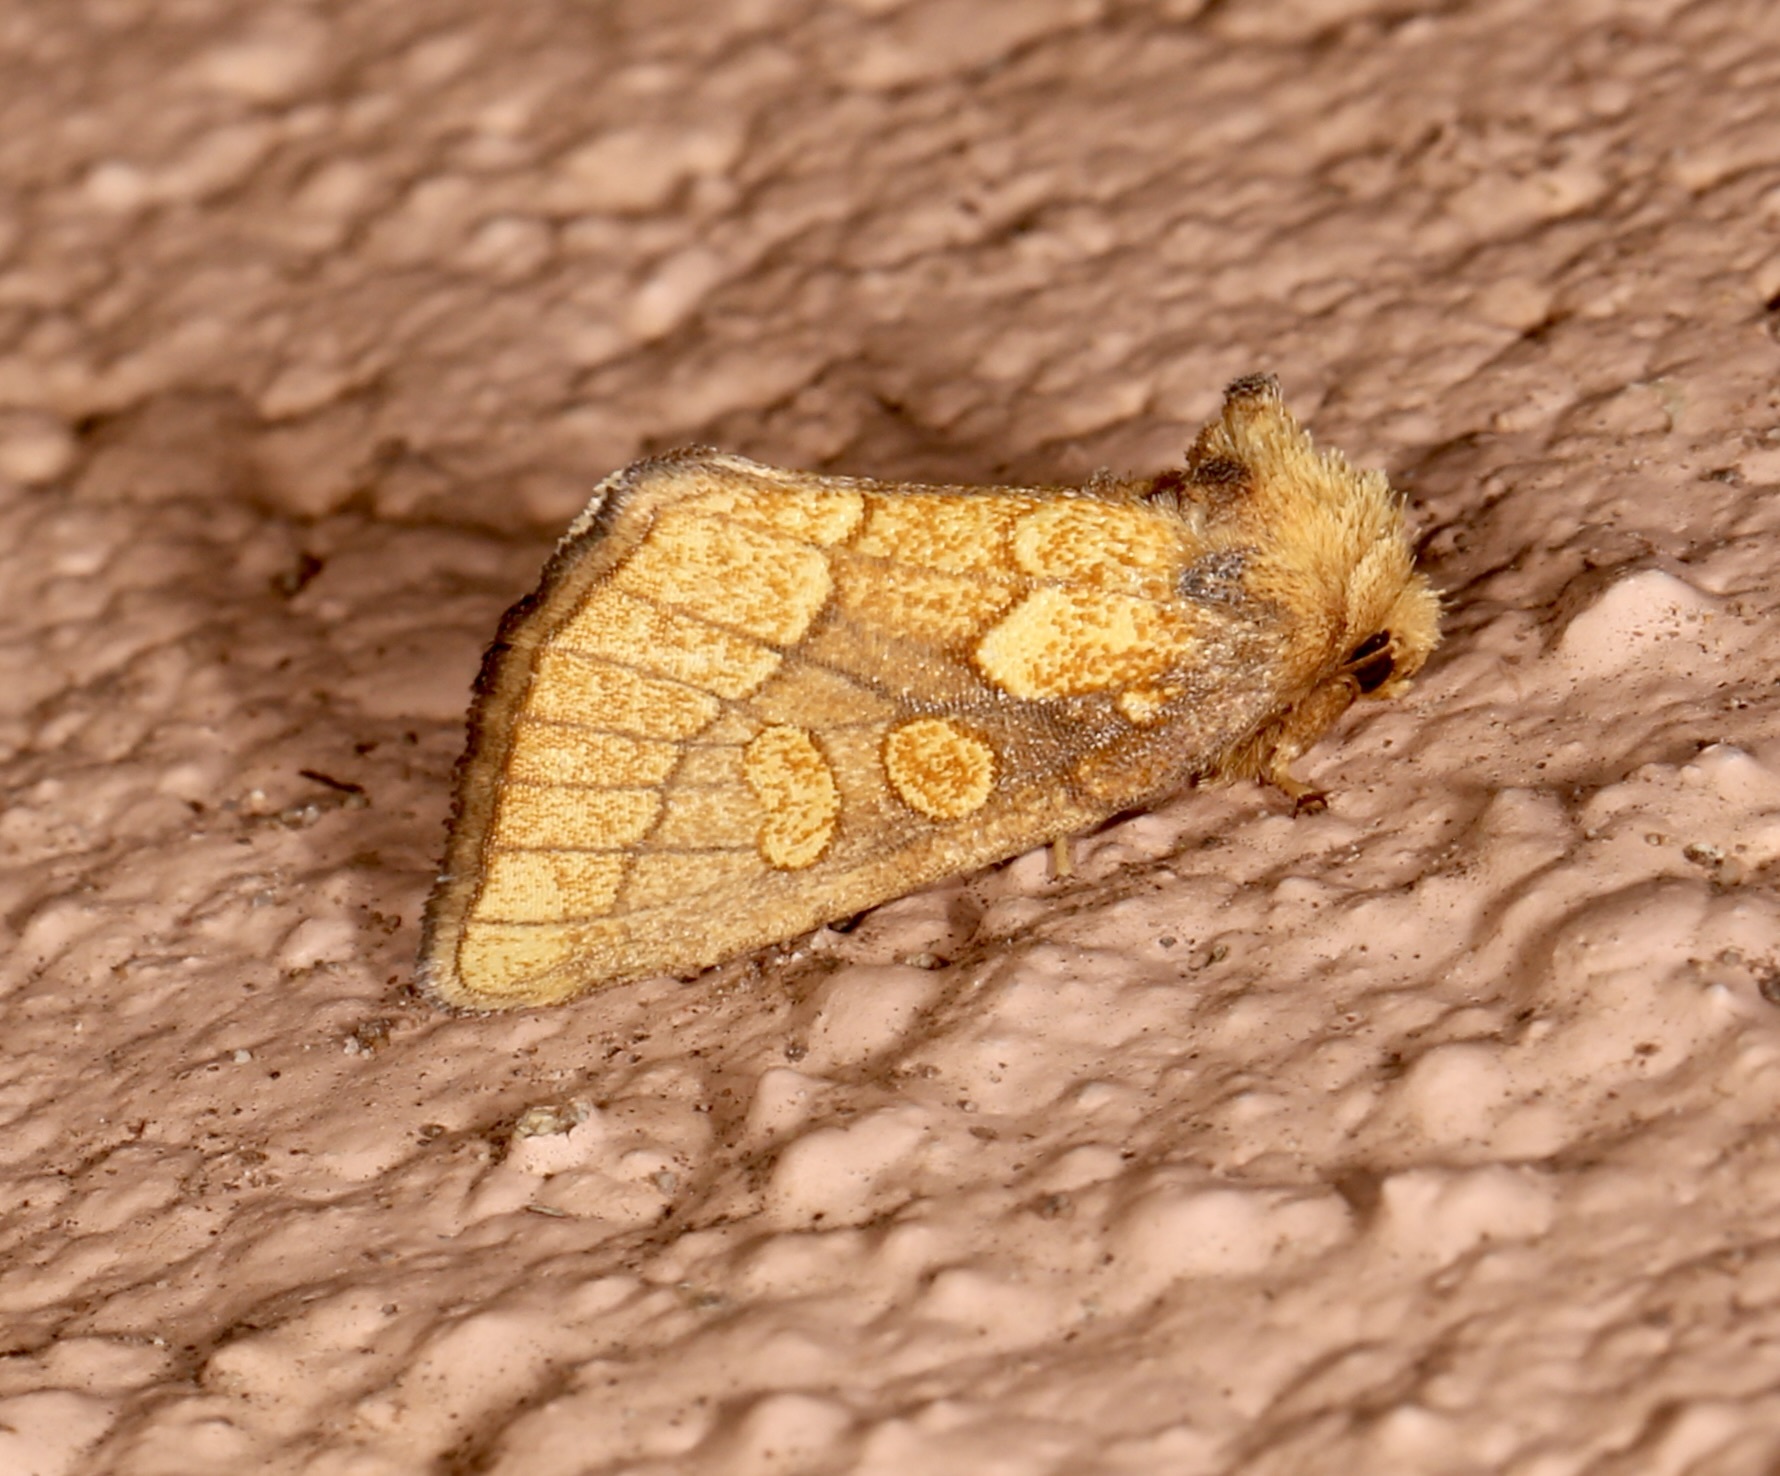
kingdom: Animalia
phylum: Arthropoda
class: Insecta
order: Lepidoptera
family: Noctuidae
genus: Nocloa
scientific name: Nocloa alcandra
